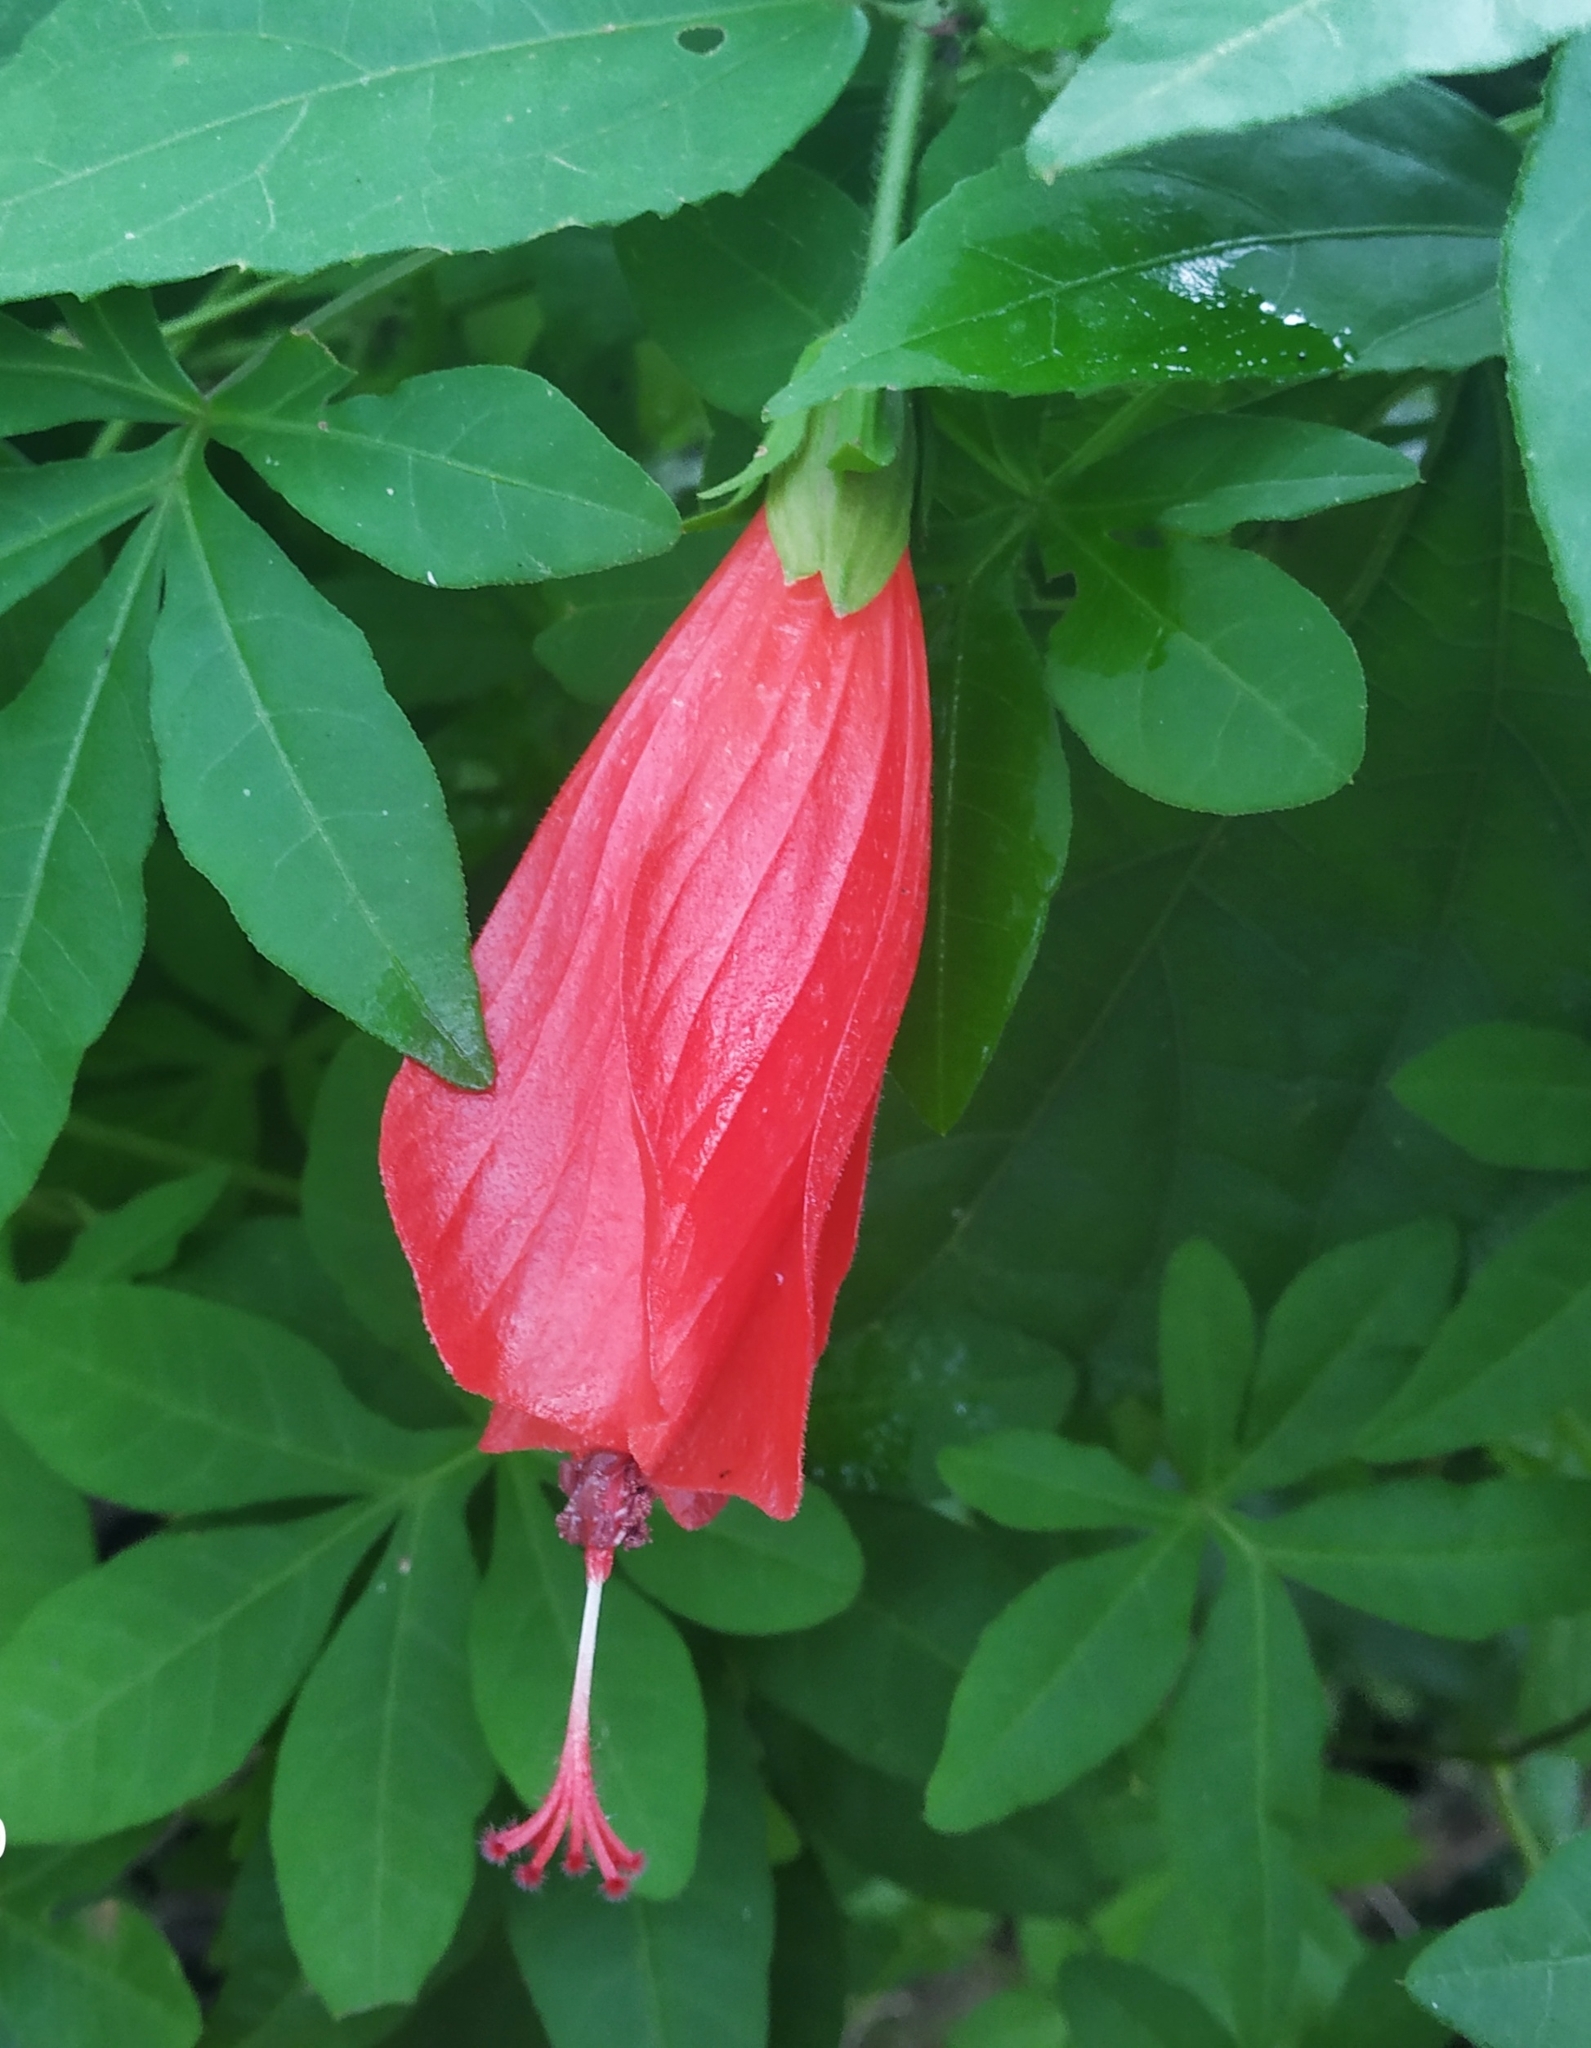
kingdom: Plantae
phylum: Tracheophyta
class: Magnoliopsida
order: Malvales
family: Malvaceae
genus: Malvaviscus
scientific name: Malvaviscus penduliflorus
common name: Mazapan
